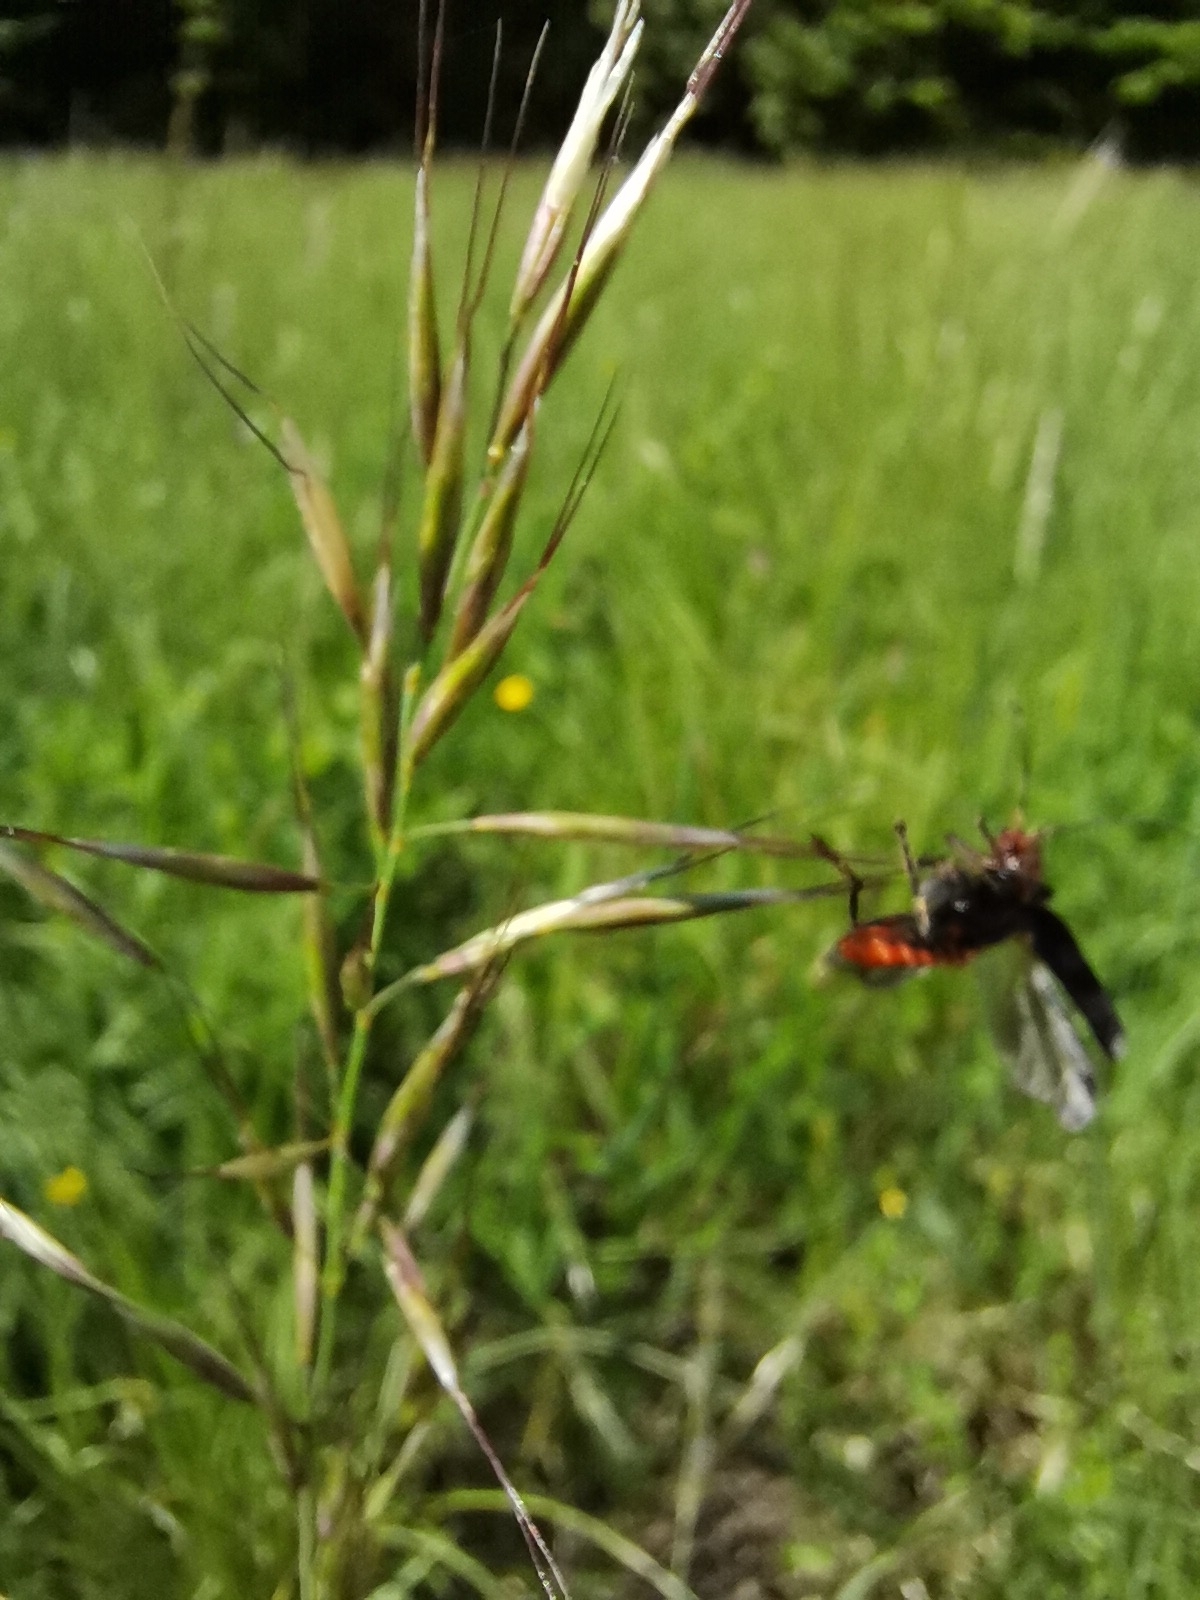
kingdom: Animalia
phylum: Arthropoda
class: Insecta
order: Coleoptera
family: Cantharidae
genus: Cantharis
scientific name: Cantharis rustica
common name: Soldier beetle
